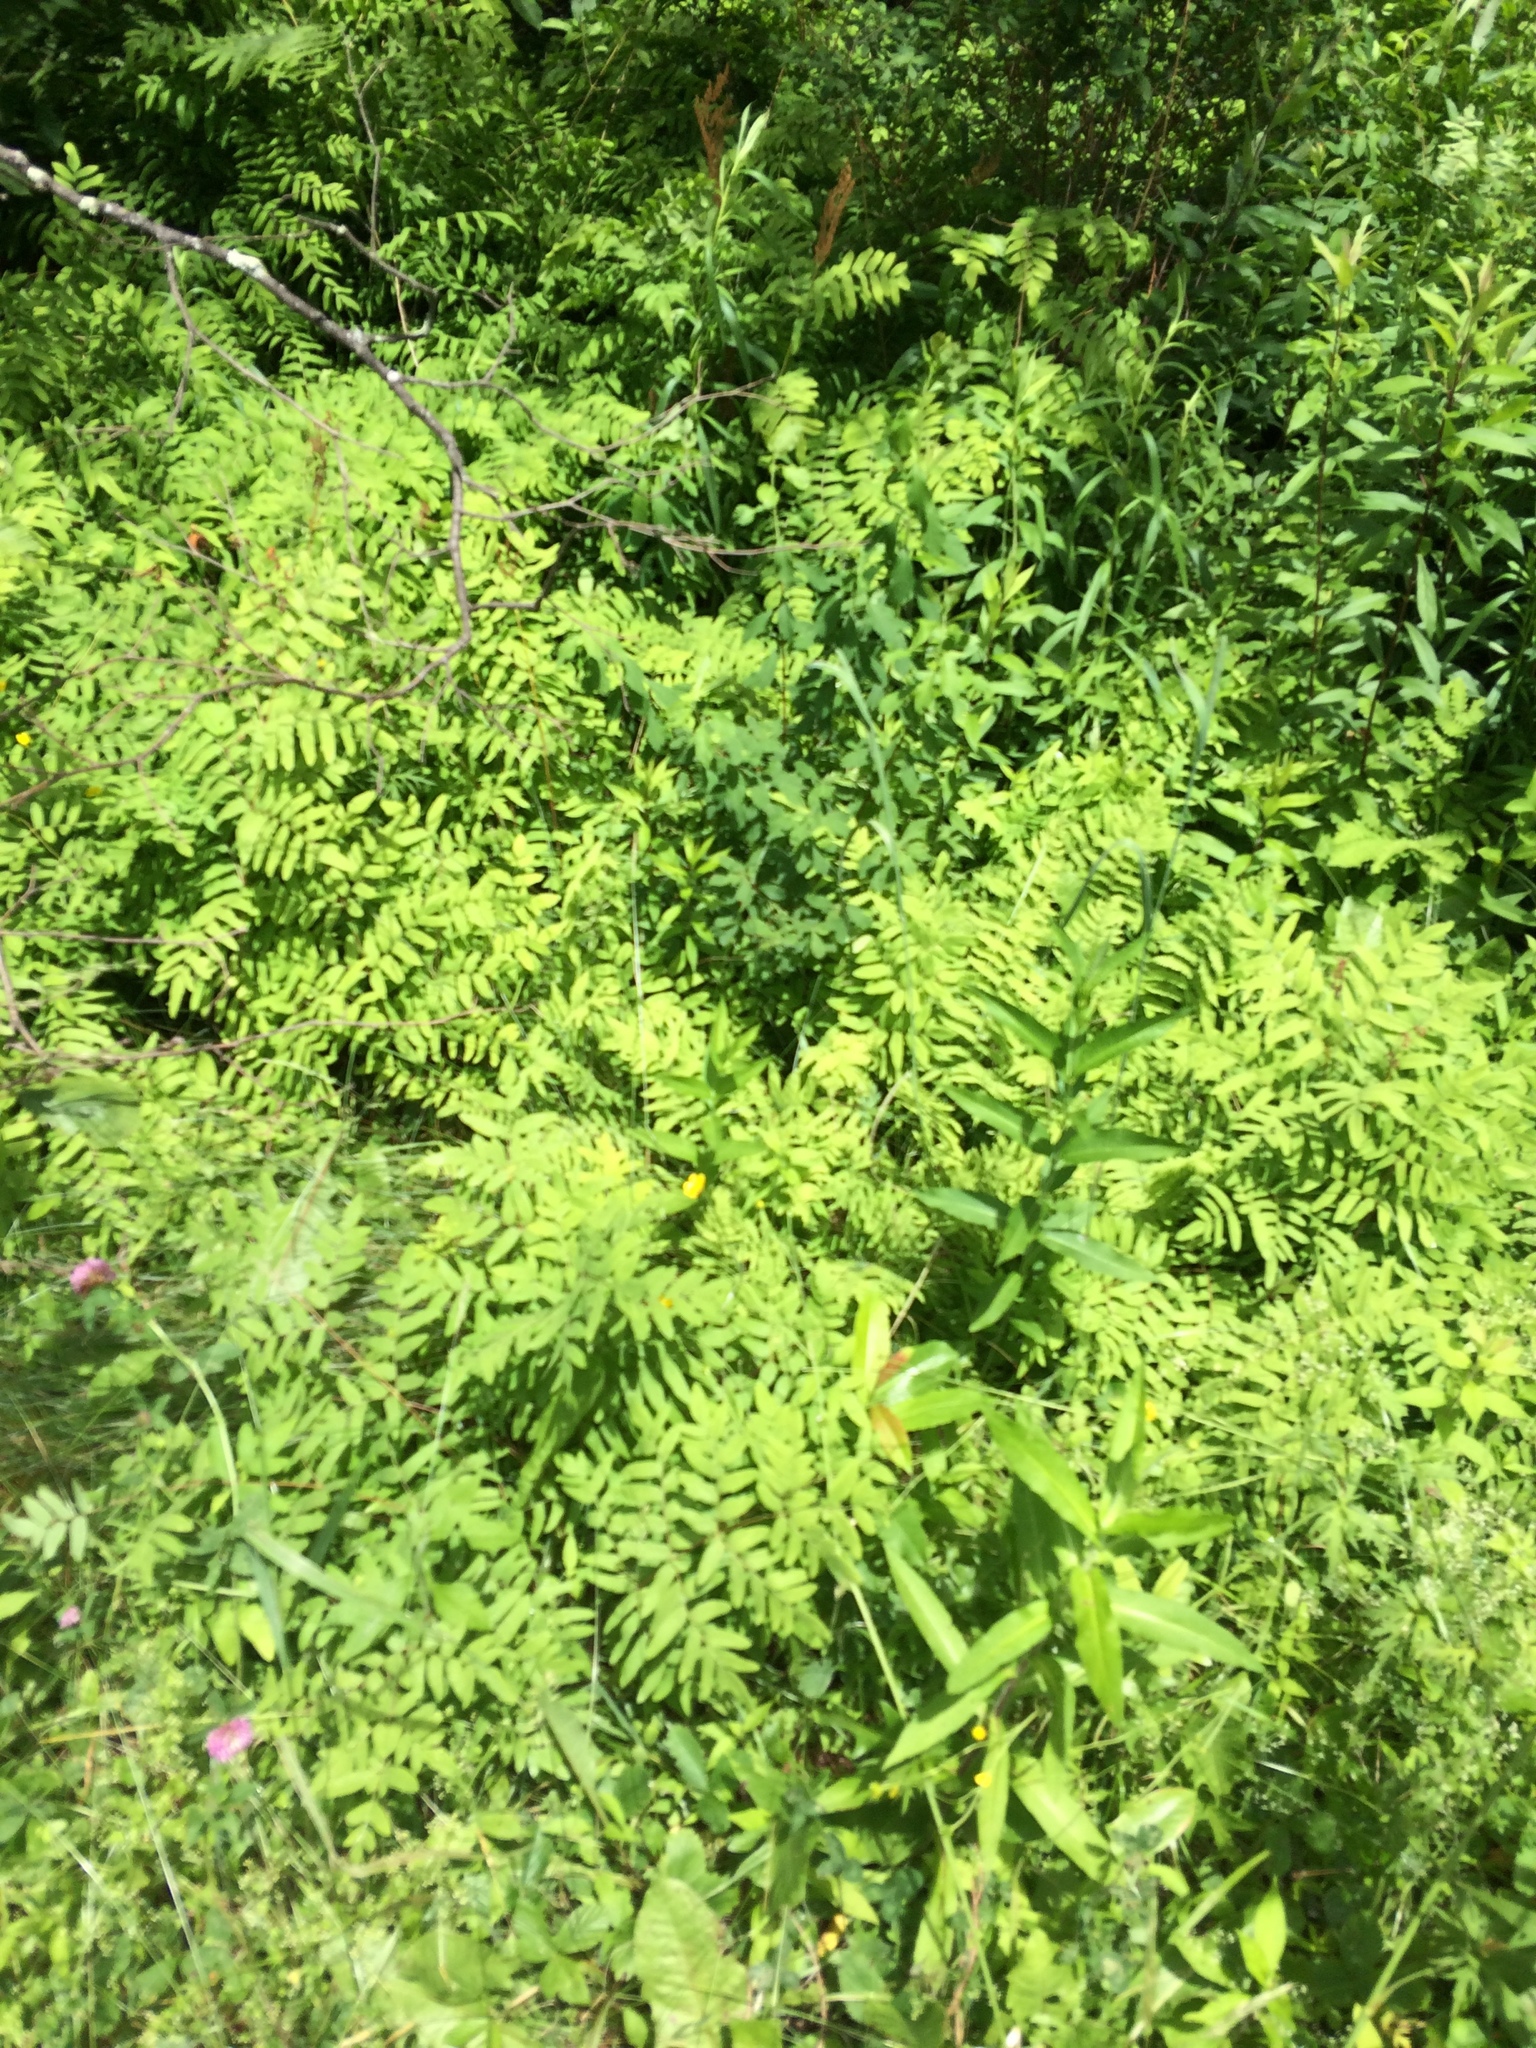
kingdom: Plantae
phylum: Tracheophyta
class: Polypodiopsida
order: Osmundales
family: Osmundaceae
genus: Osmunda
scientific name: Osmunda spectabilis
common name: American royal fern
